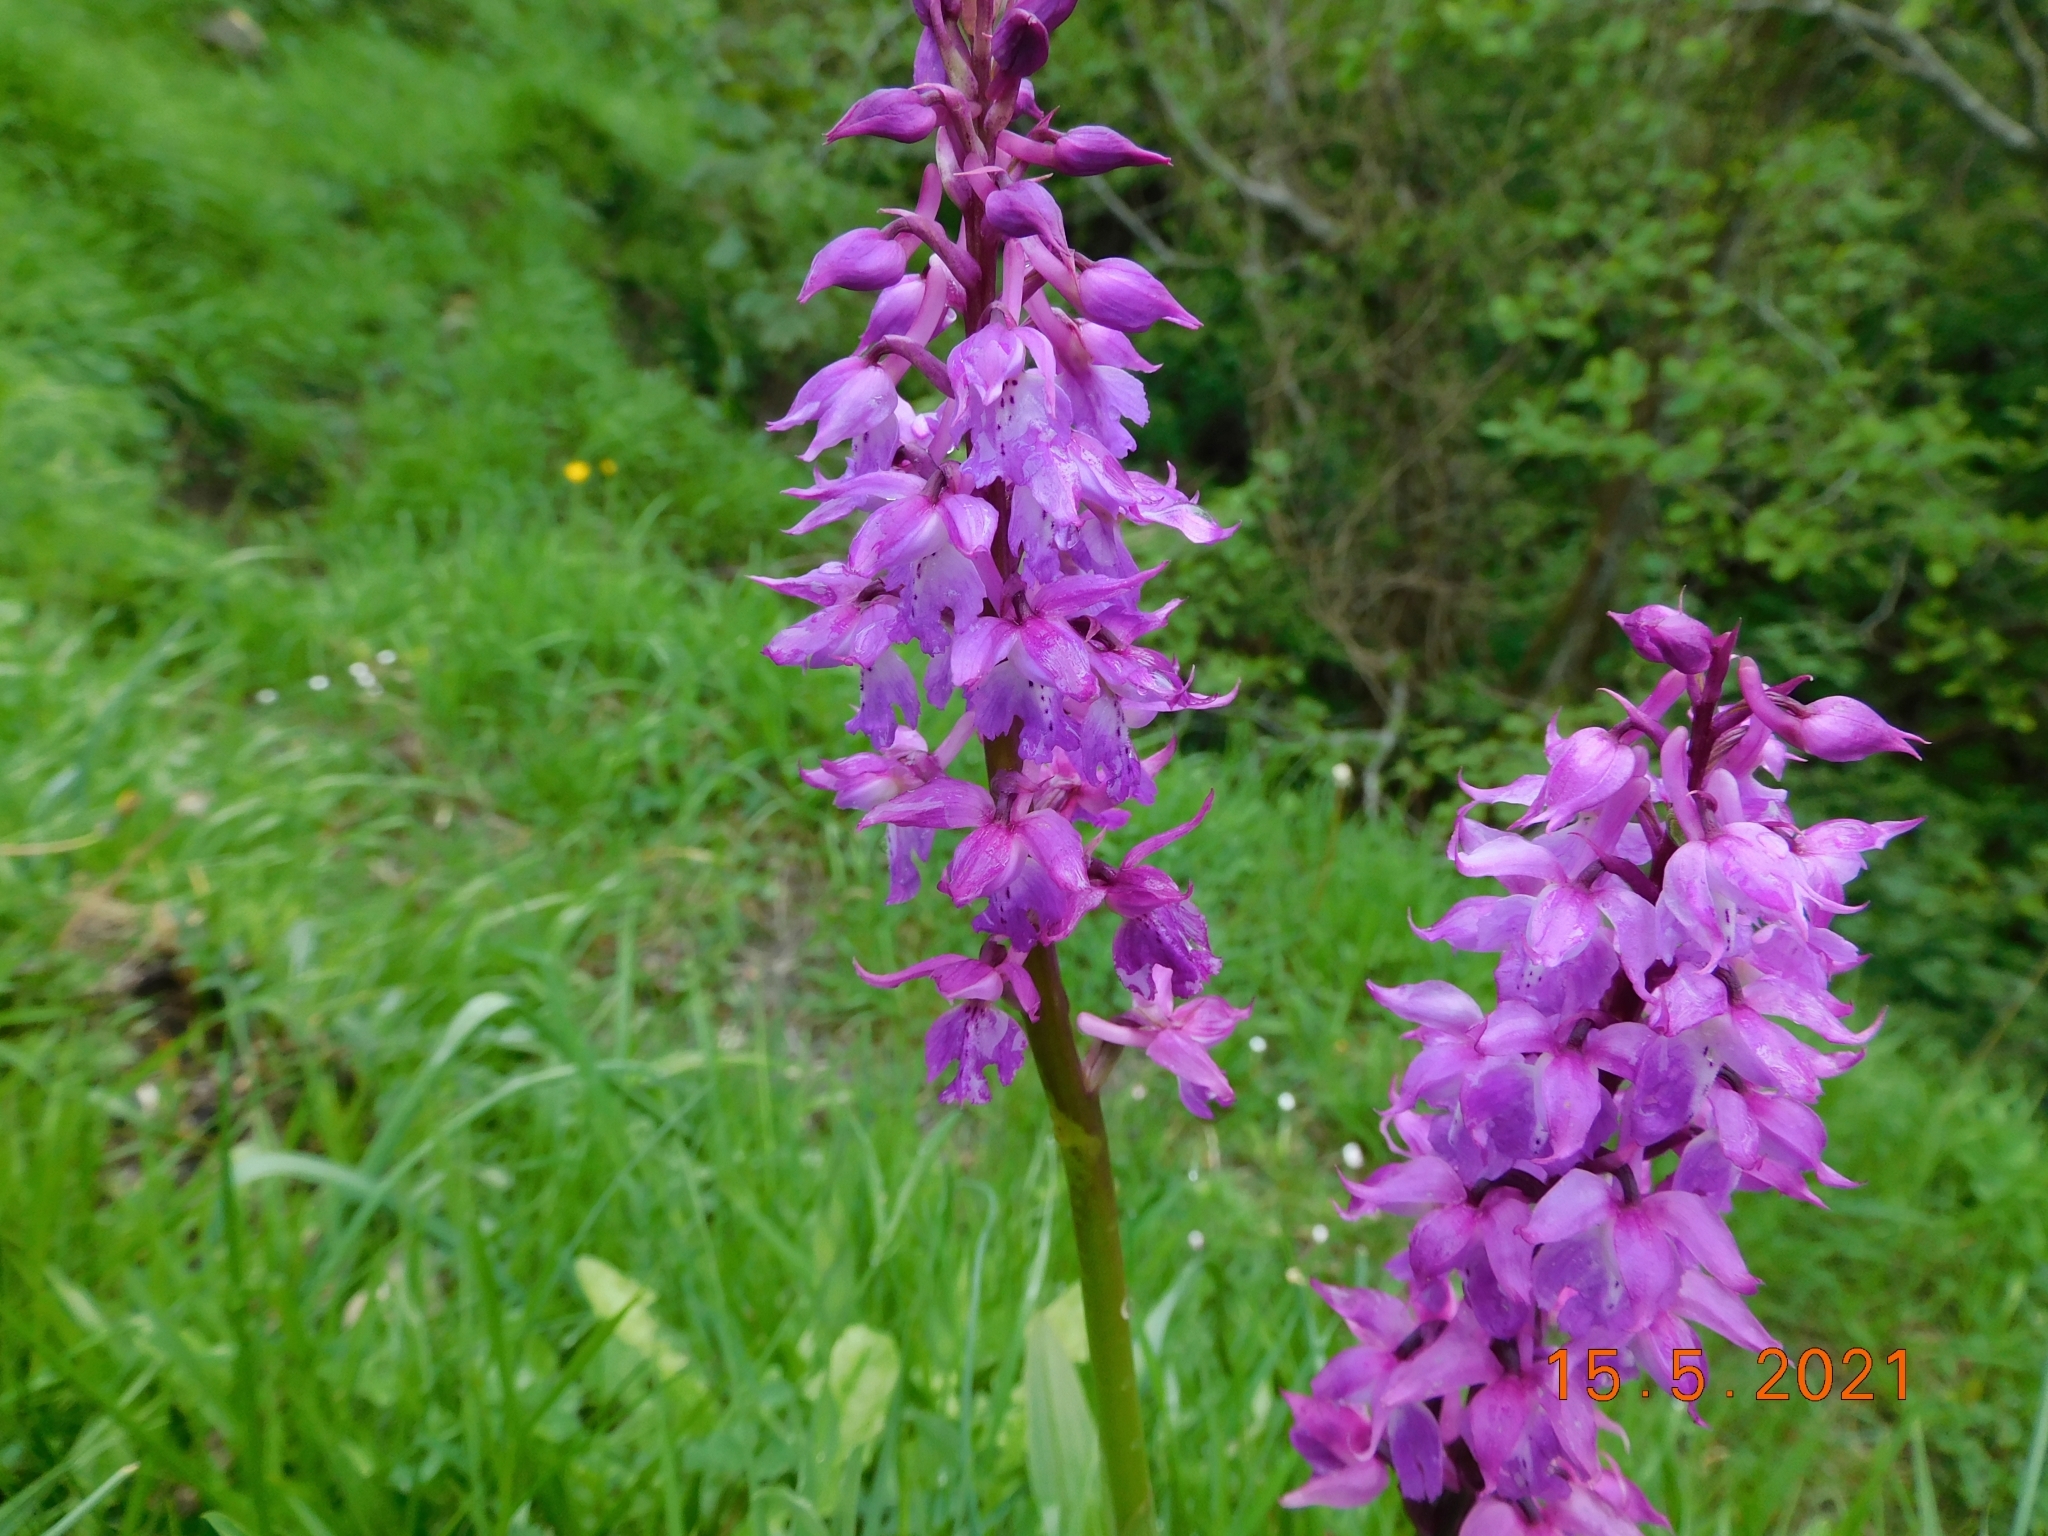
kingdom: Plantae
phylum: Tracheophyta
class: Liliopsida
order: Asparagales
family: Orchidaceae
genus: Orchis
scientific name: Orchis mascula
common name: Early-purple orchid
